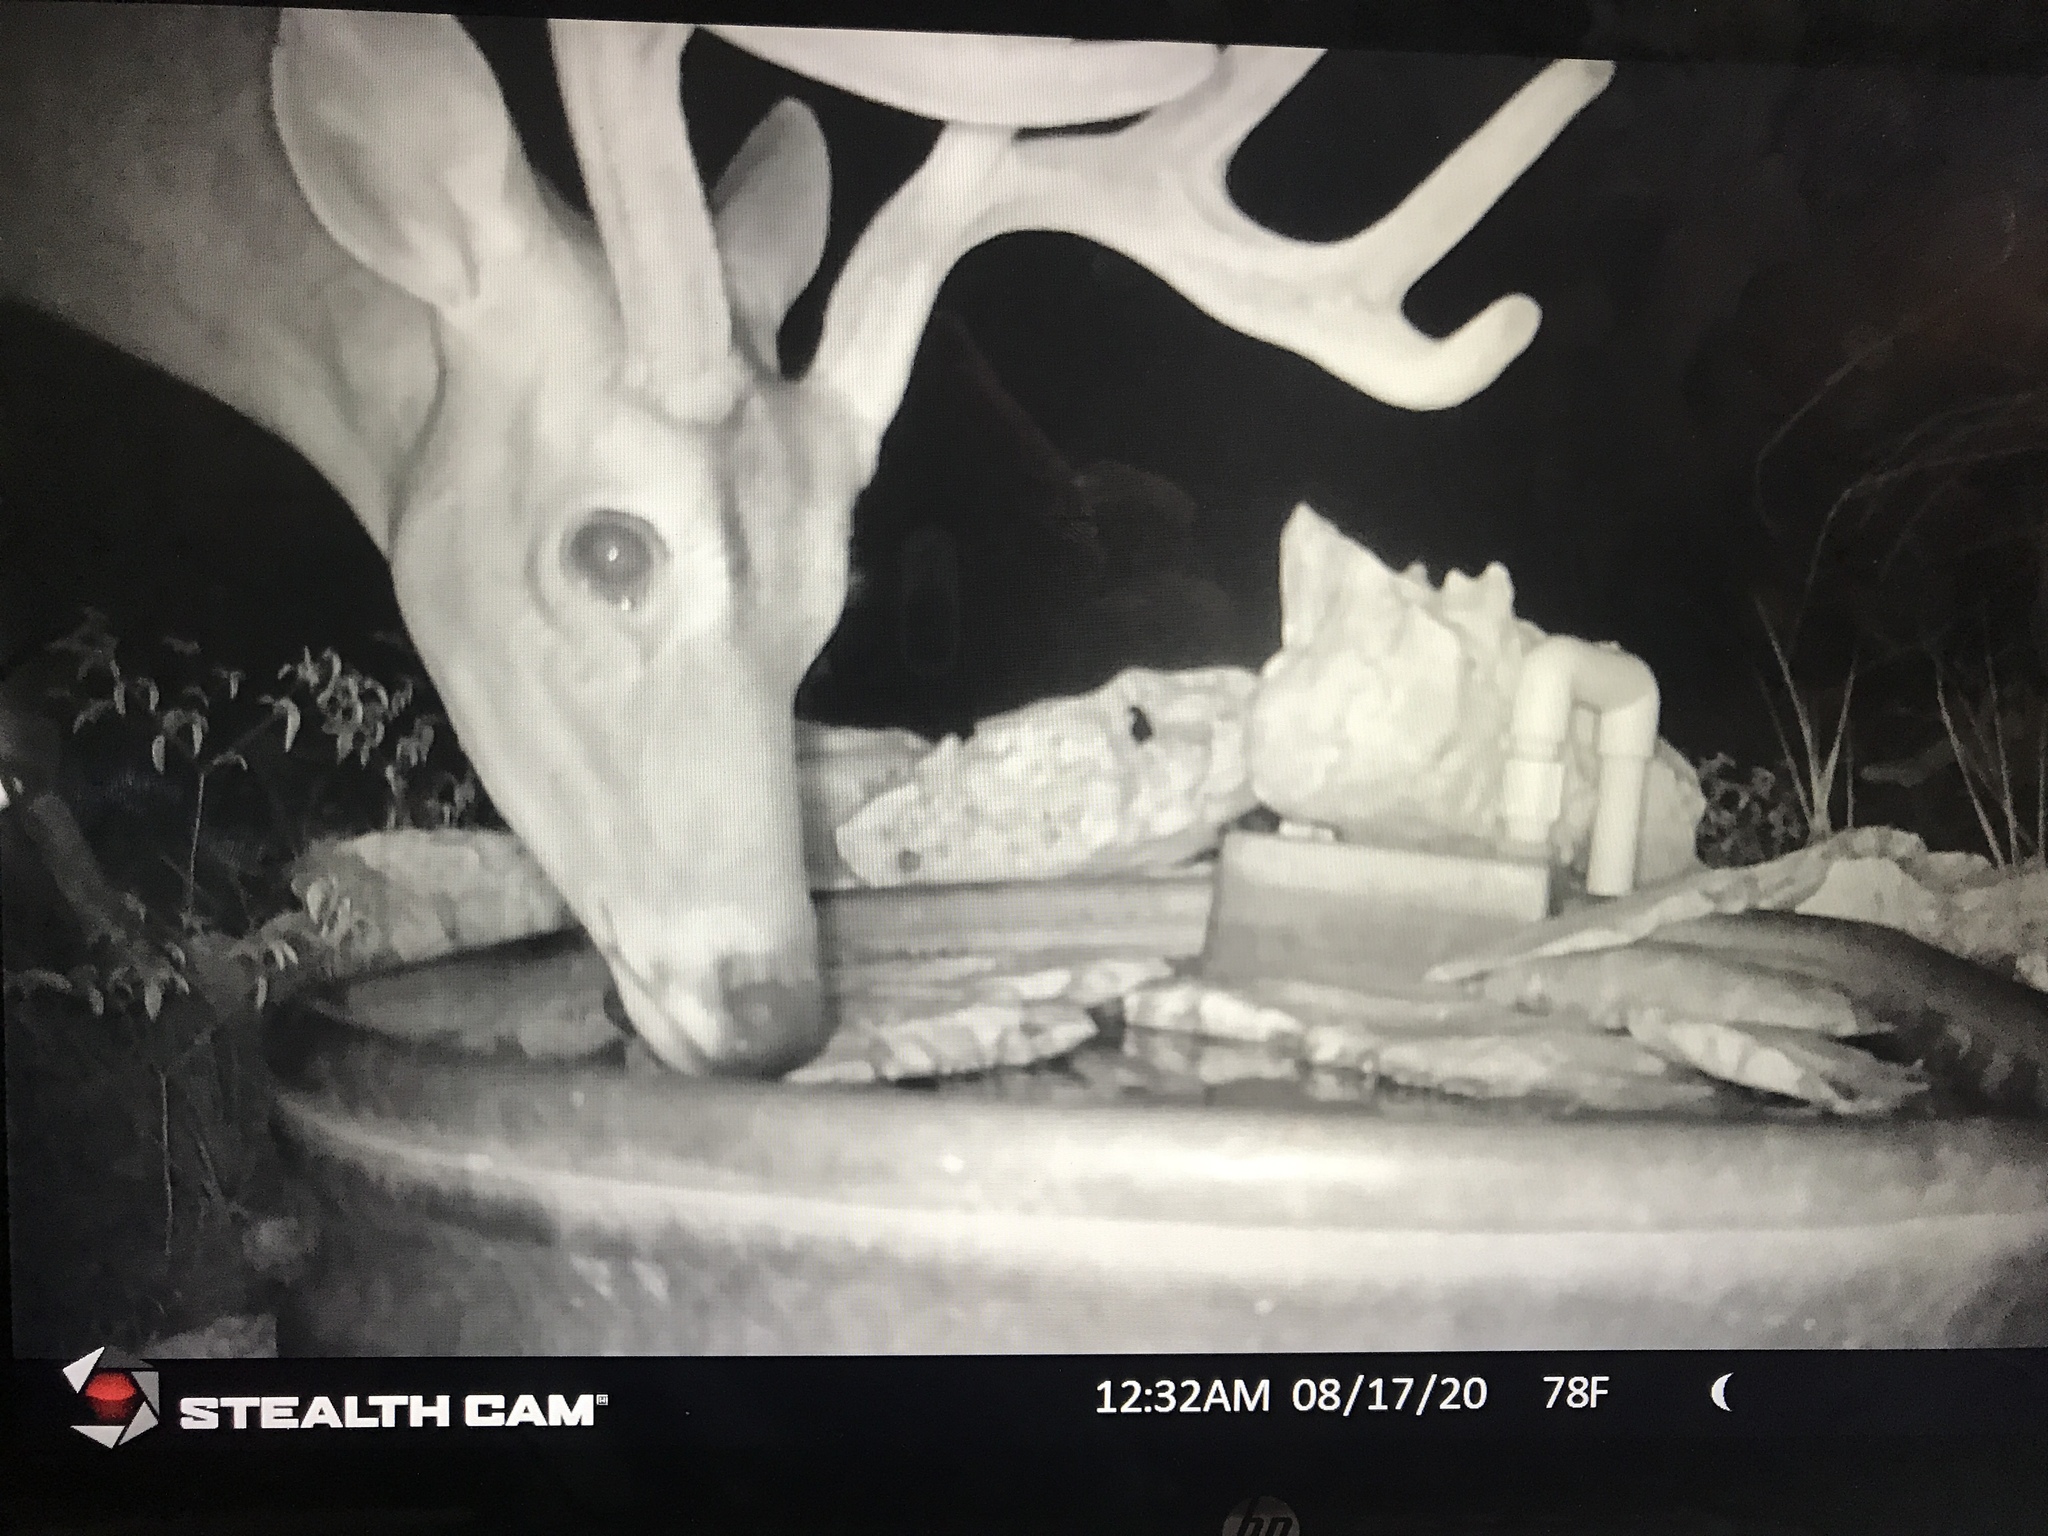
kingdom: Animalia
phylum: Chordata
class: Mammalia
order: Artiodactyla
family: Cervidae
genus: Odocoileus
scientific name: Odocoileus virginianus
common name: White-tailed deer
